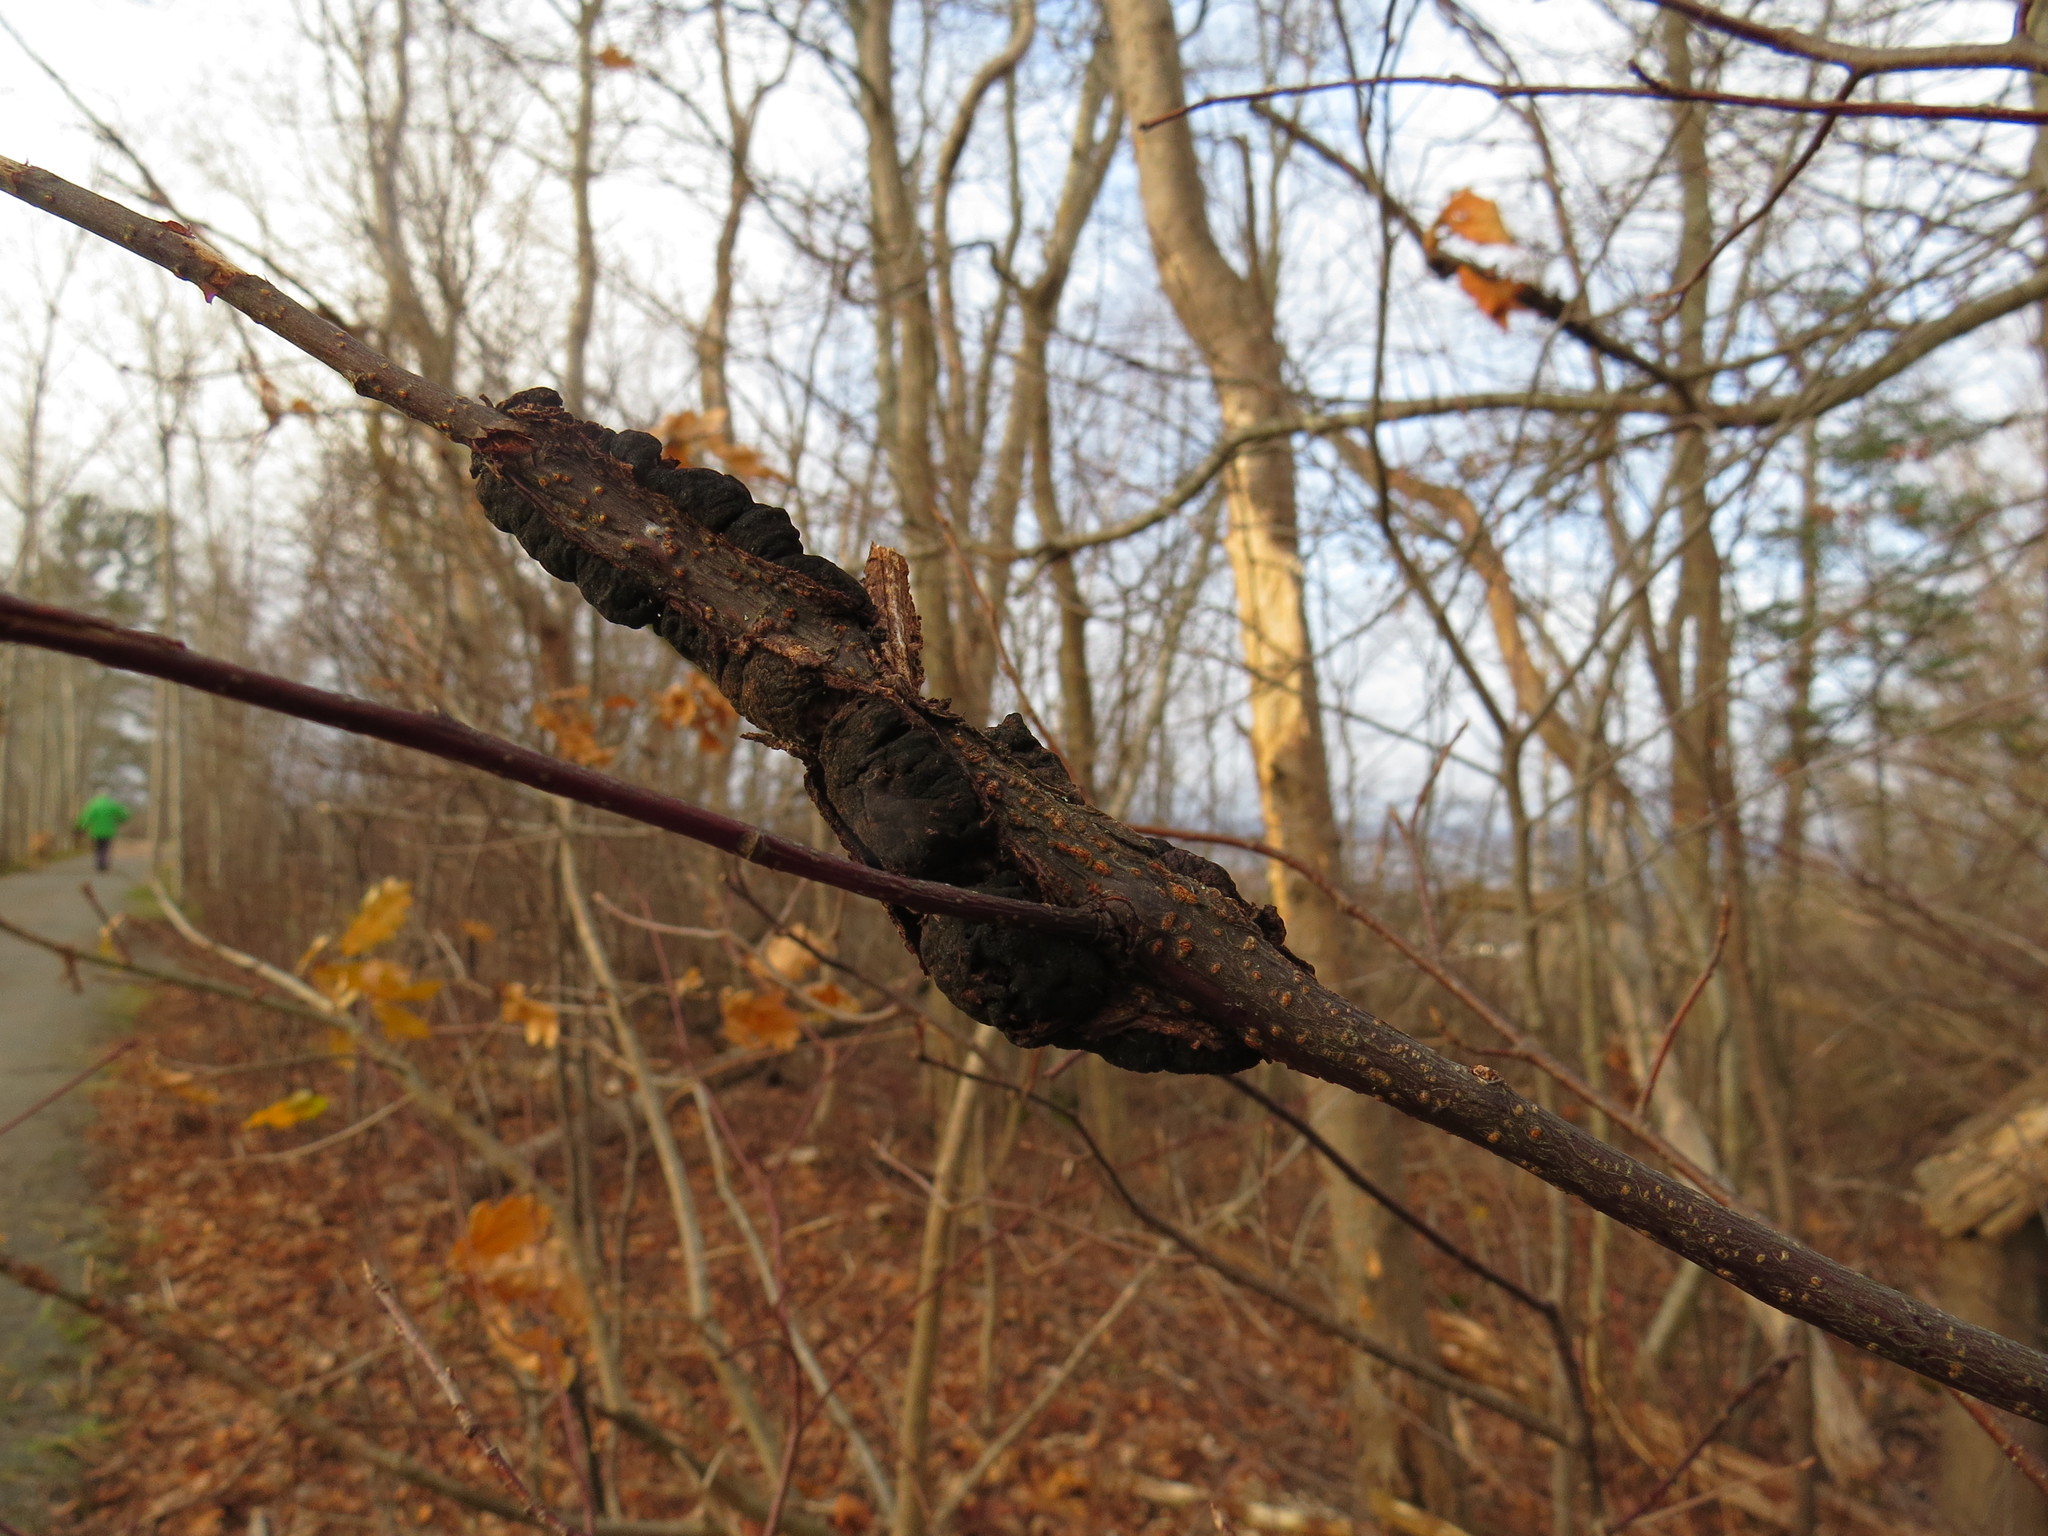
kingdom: Fungi
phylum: Ascomycota
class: Dothideomycetes
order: Venturiales
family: Venturiaceae
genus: Apiosporina
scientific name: Apiosporina morbosa
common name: Black knot
